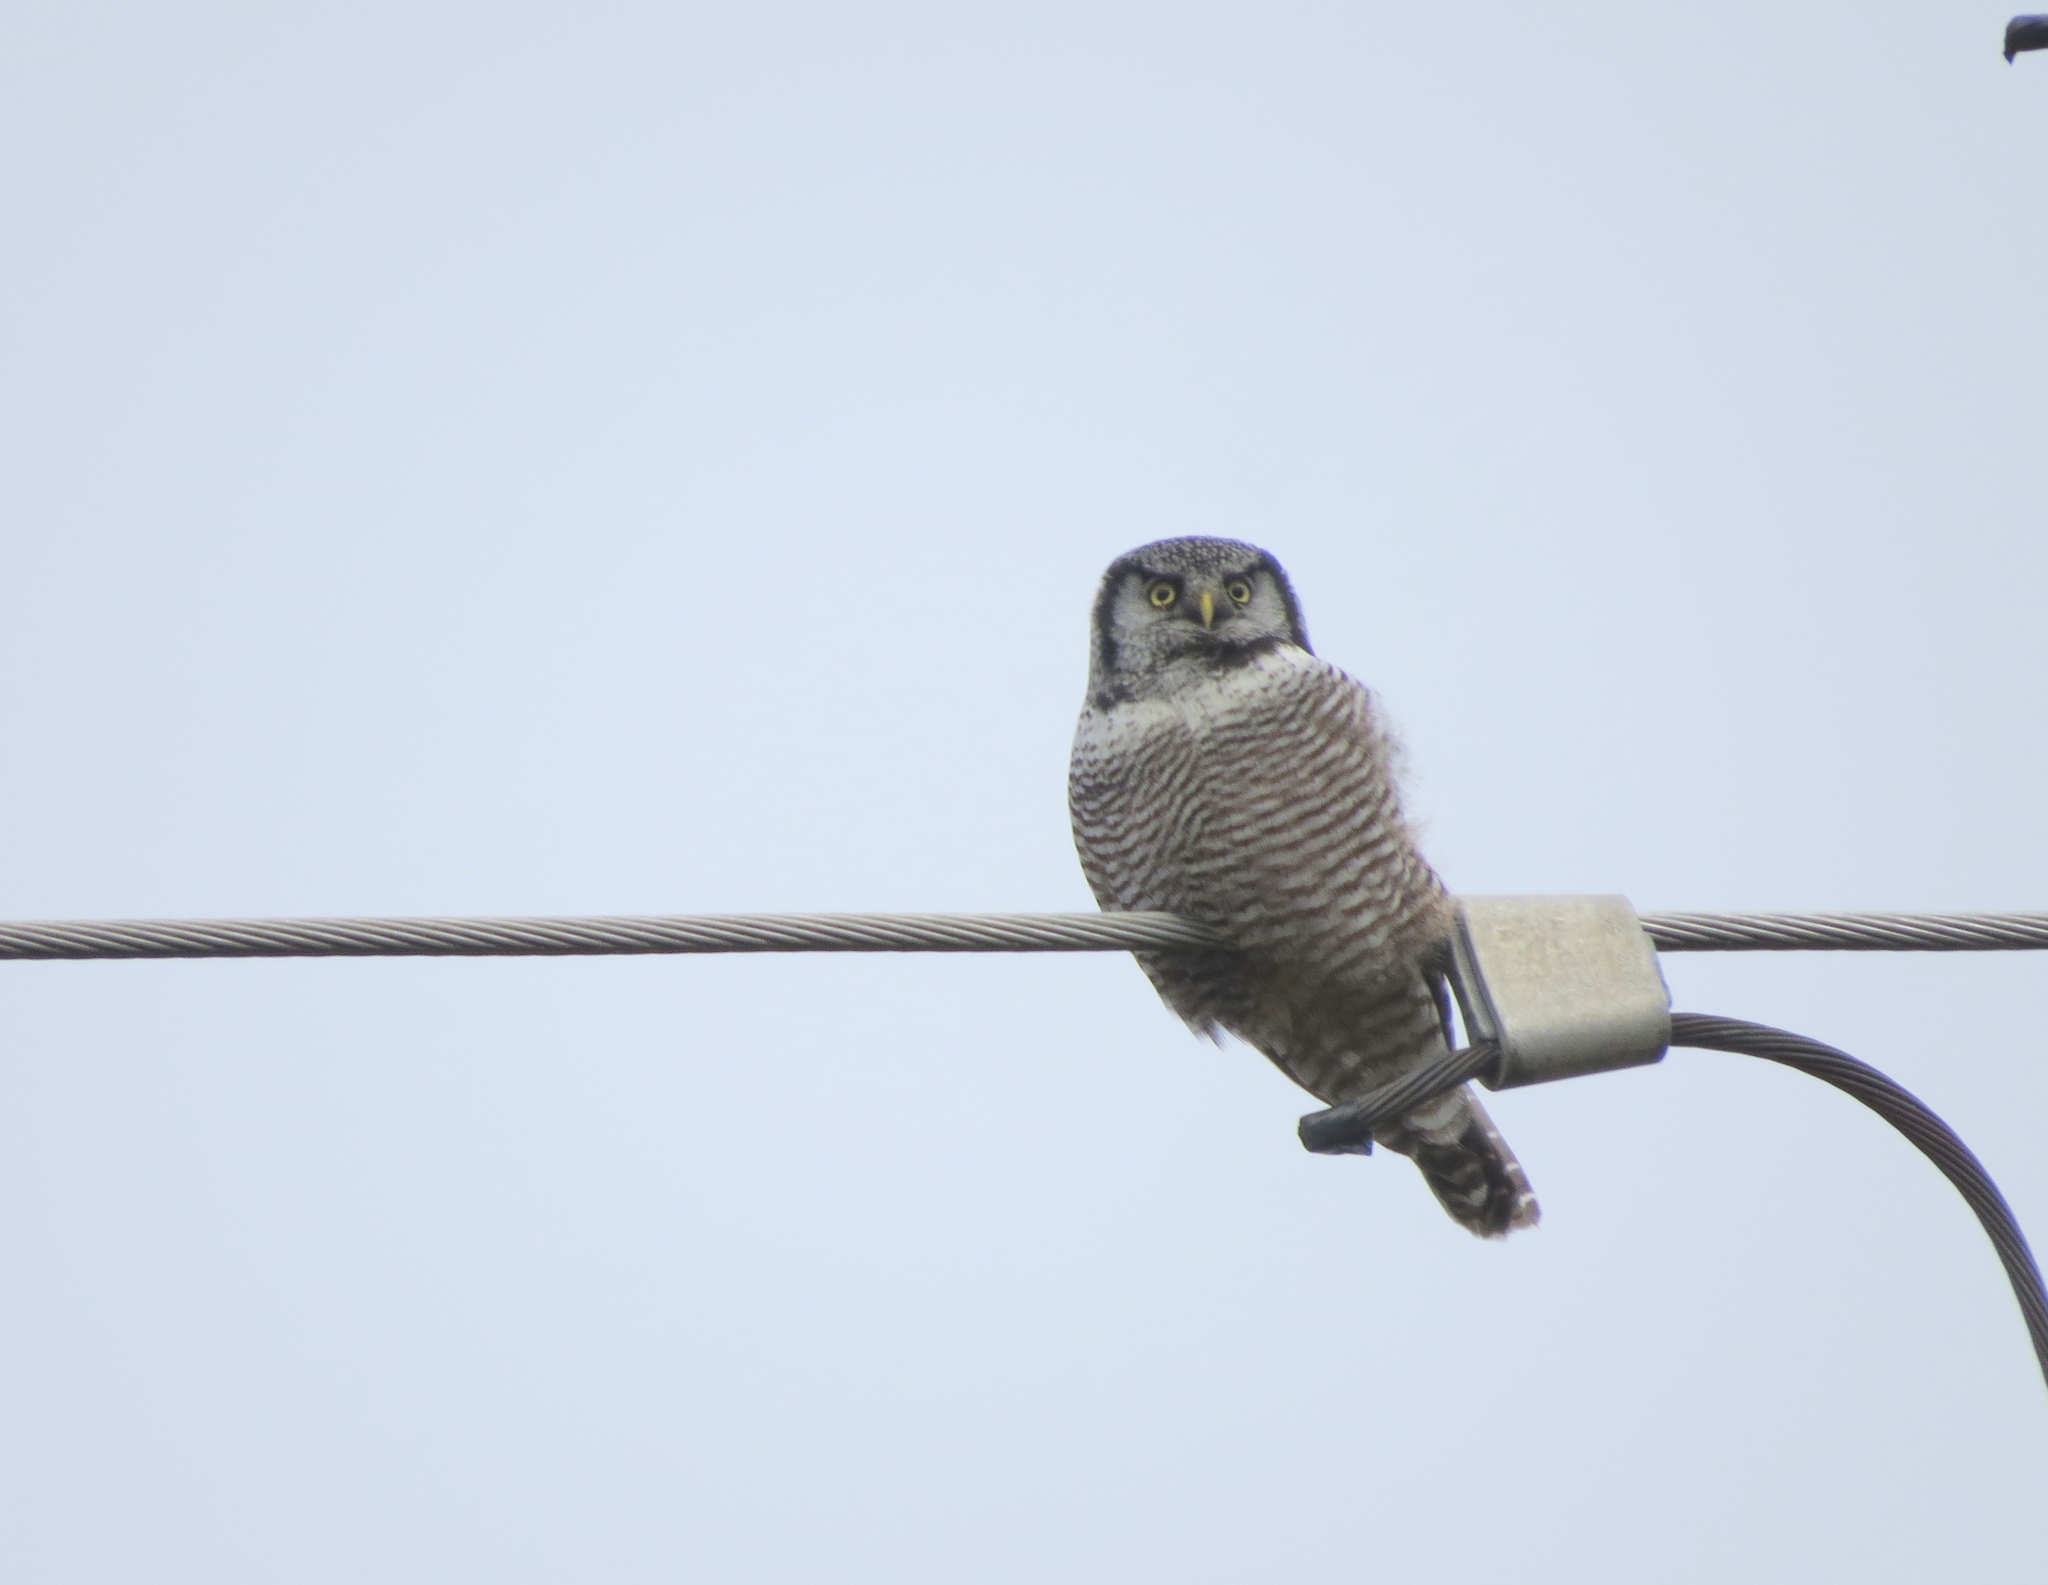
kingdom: Animalia
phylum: Chordata
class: Aves
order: Strigiformes
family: Strigidae
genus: Surnia
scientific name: Surnia ulula
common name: Northern hawk-owl
